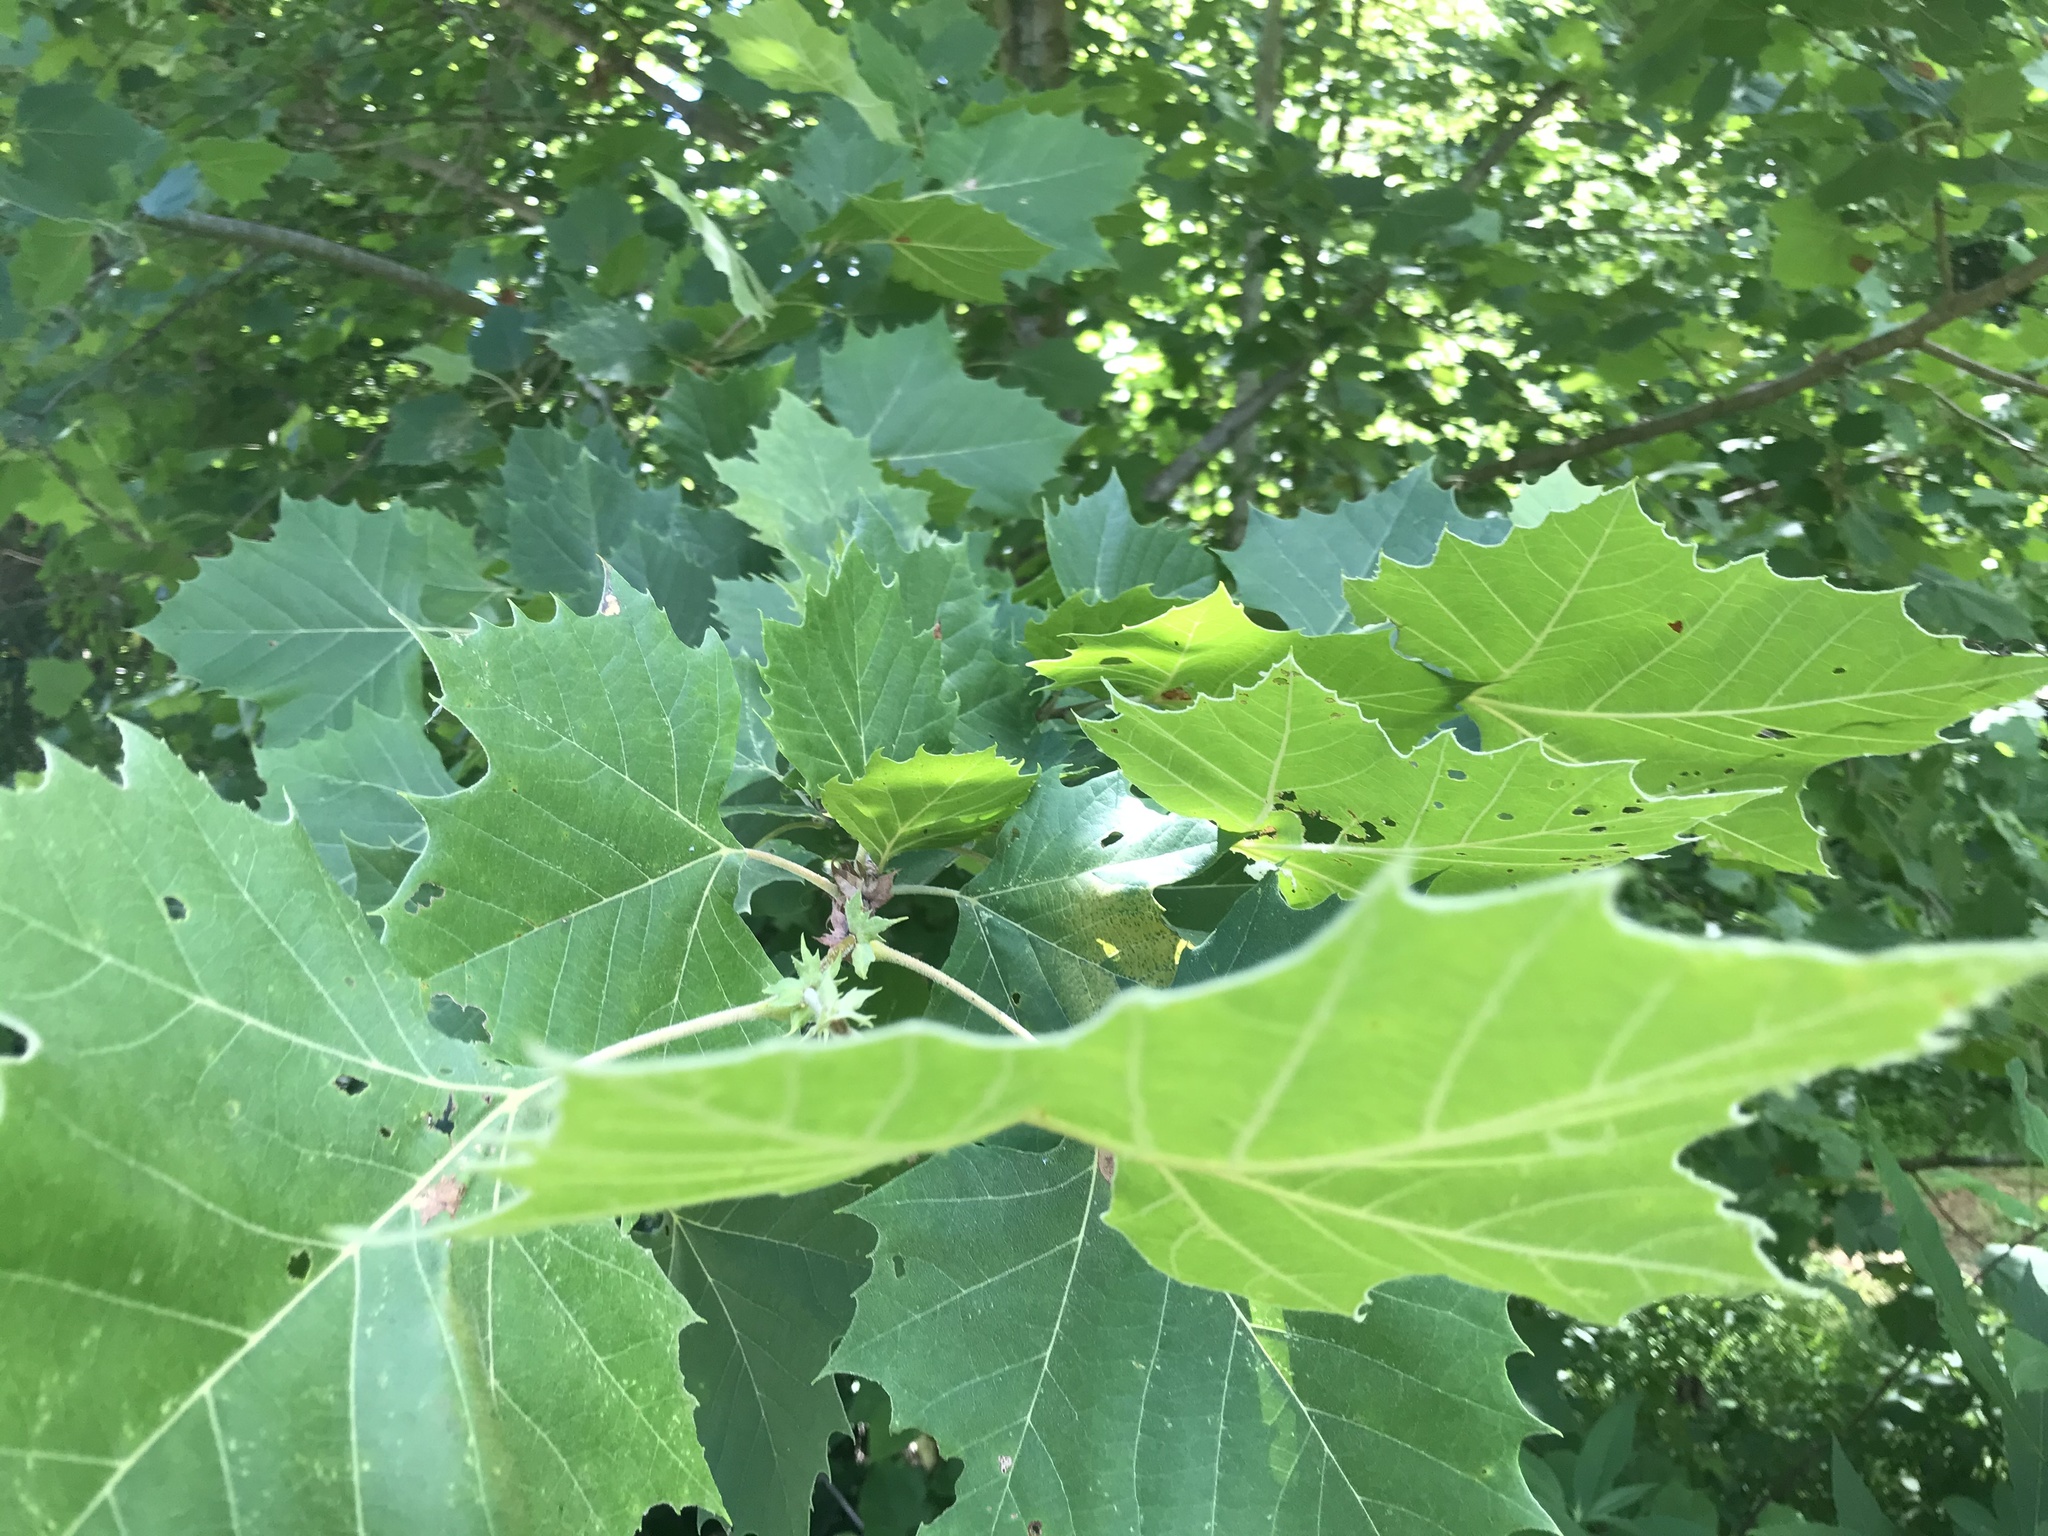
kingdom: Plantae
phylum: Tracheophyta
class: Magnoliopsida
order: Proteales
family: Platanaceae
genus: Platanus
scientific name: Platanus occidentalis
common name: American sycamore
